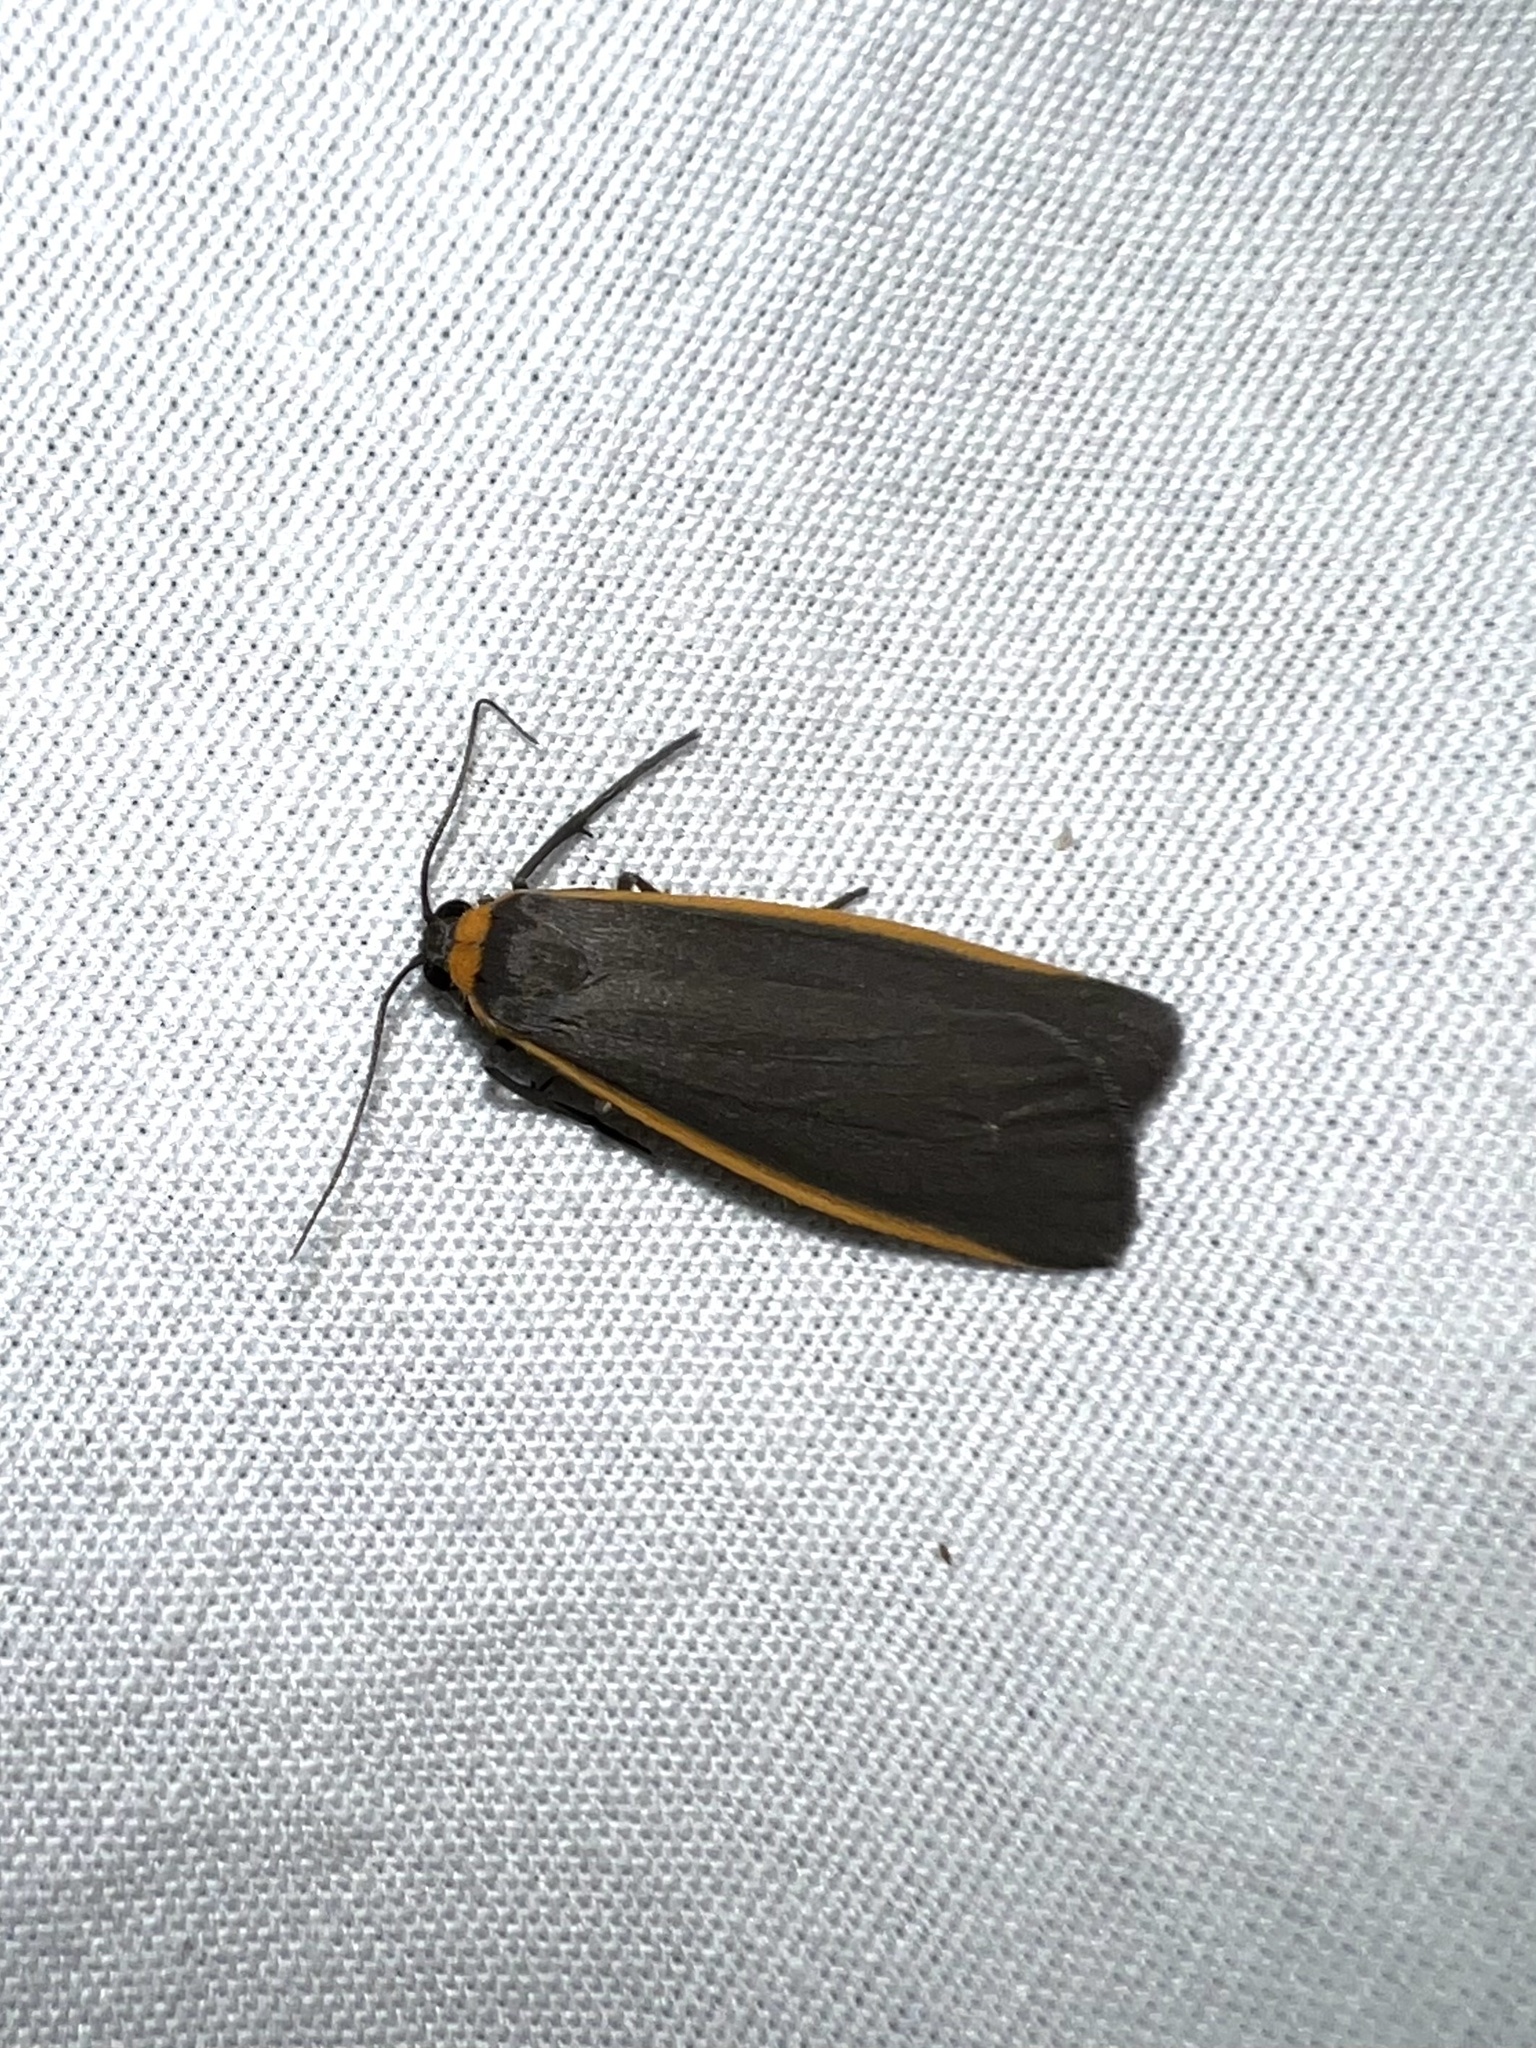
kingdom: Animalia
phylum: Arthropoda
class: Insecta
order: Lepidoptera
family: Erebidae
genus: Manulea
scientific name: Manulea bicolor
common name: Bicolored moth
